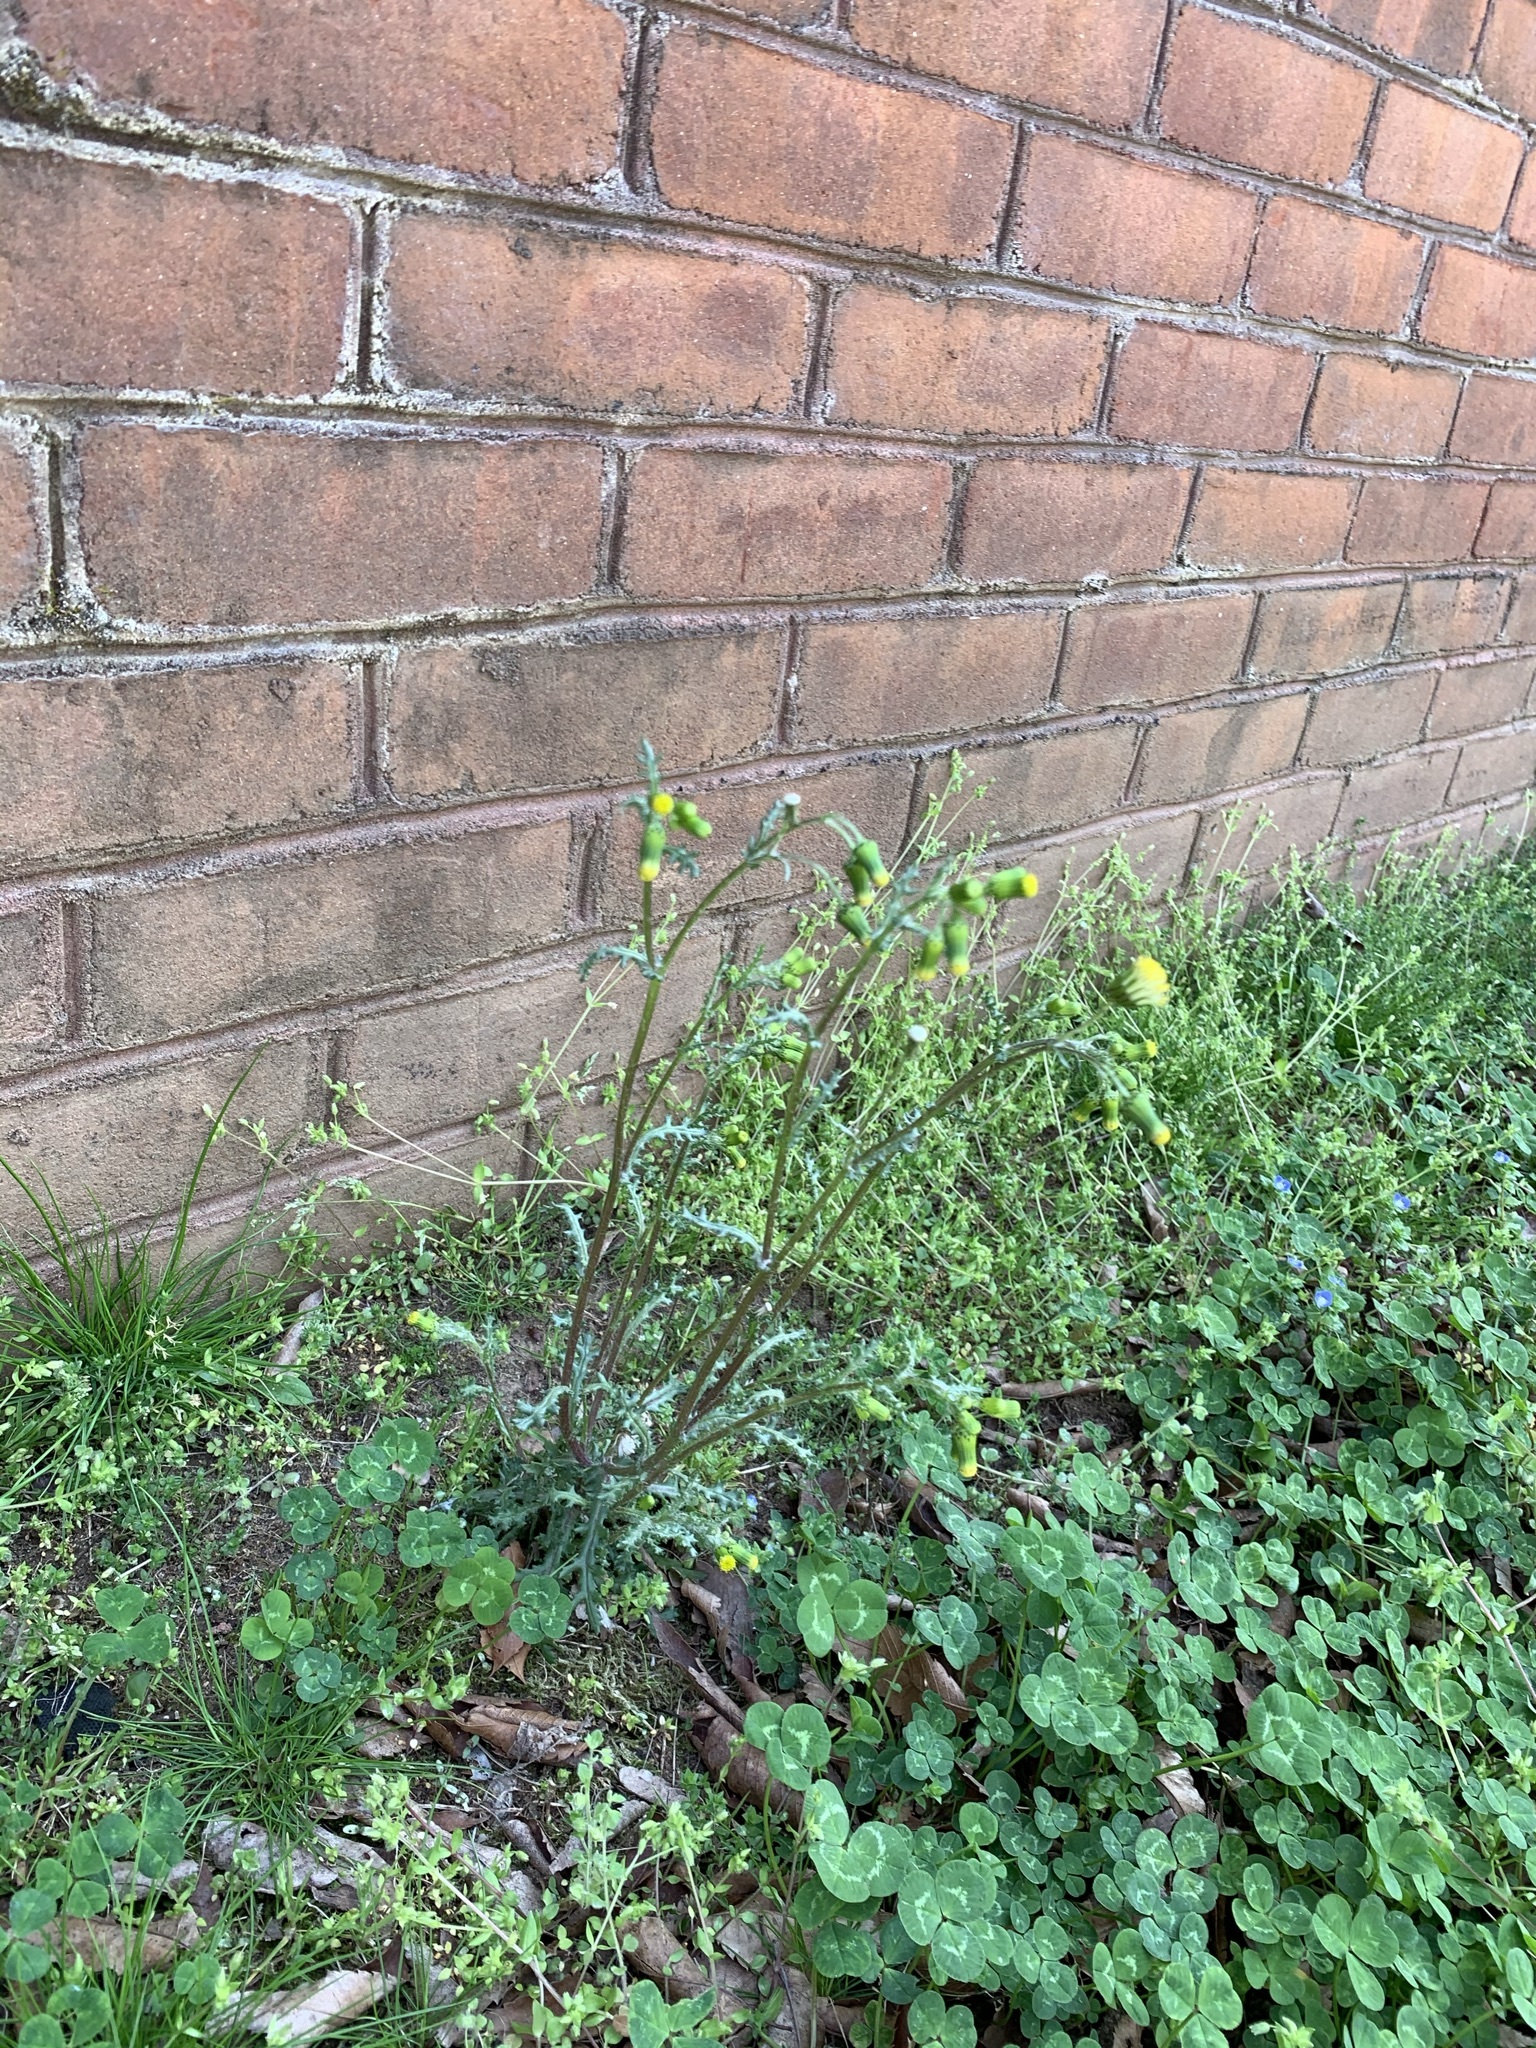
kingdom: Plantae
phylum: Tracheophyta
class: Magnoliopsida
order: Asterales
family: Asteraceae
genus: Senecio
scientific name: Senecio vulgaris
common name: Old-man-in-the-spring
